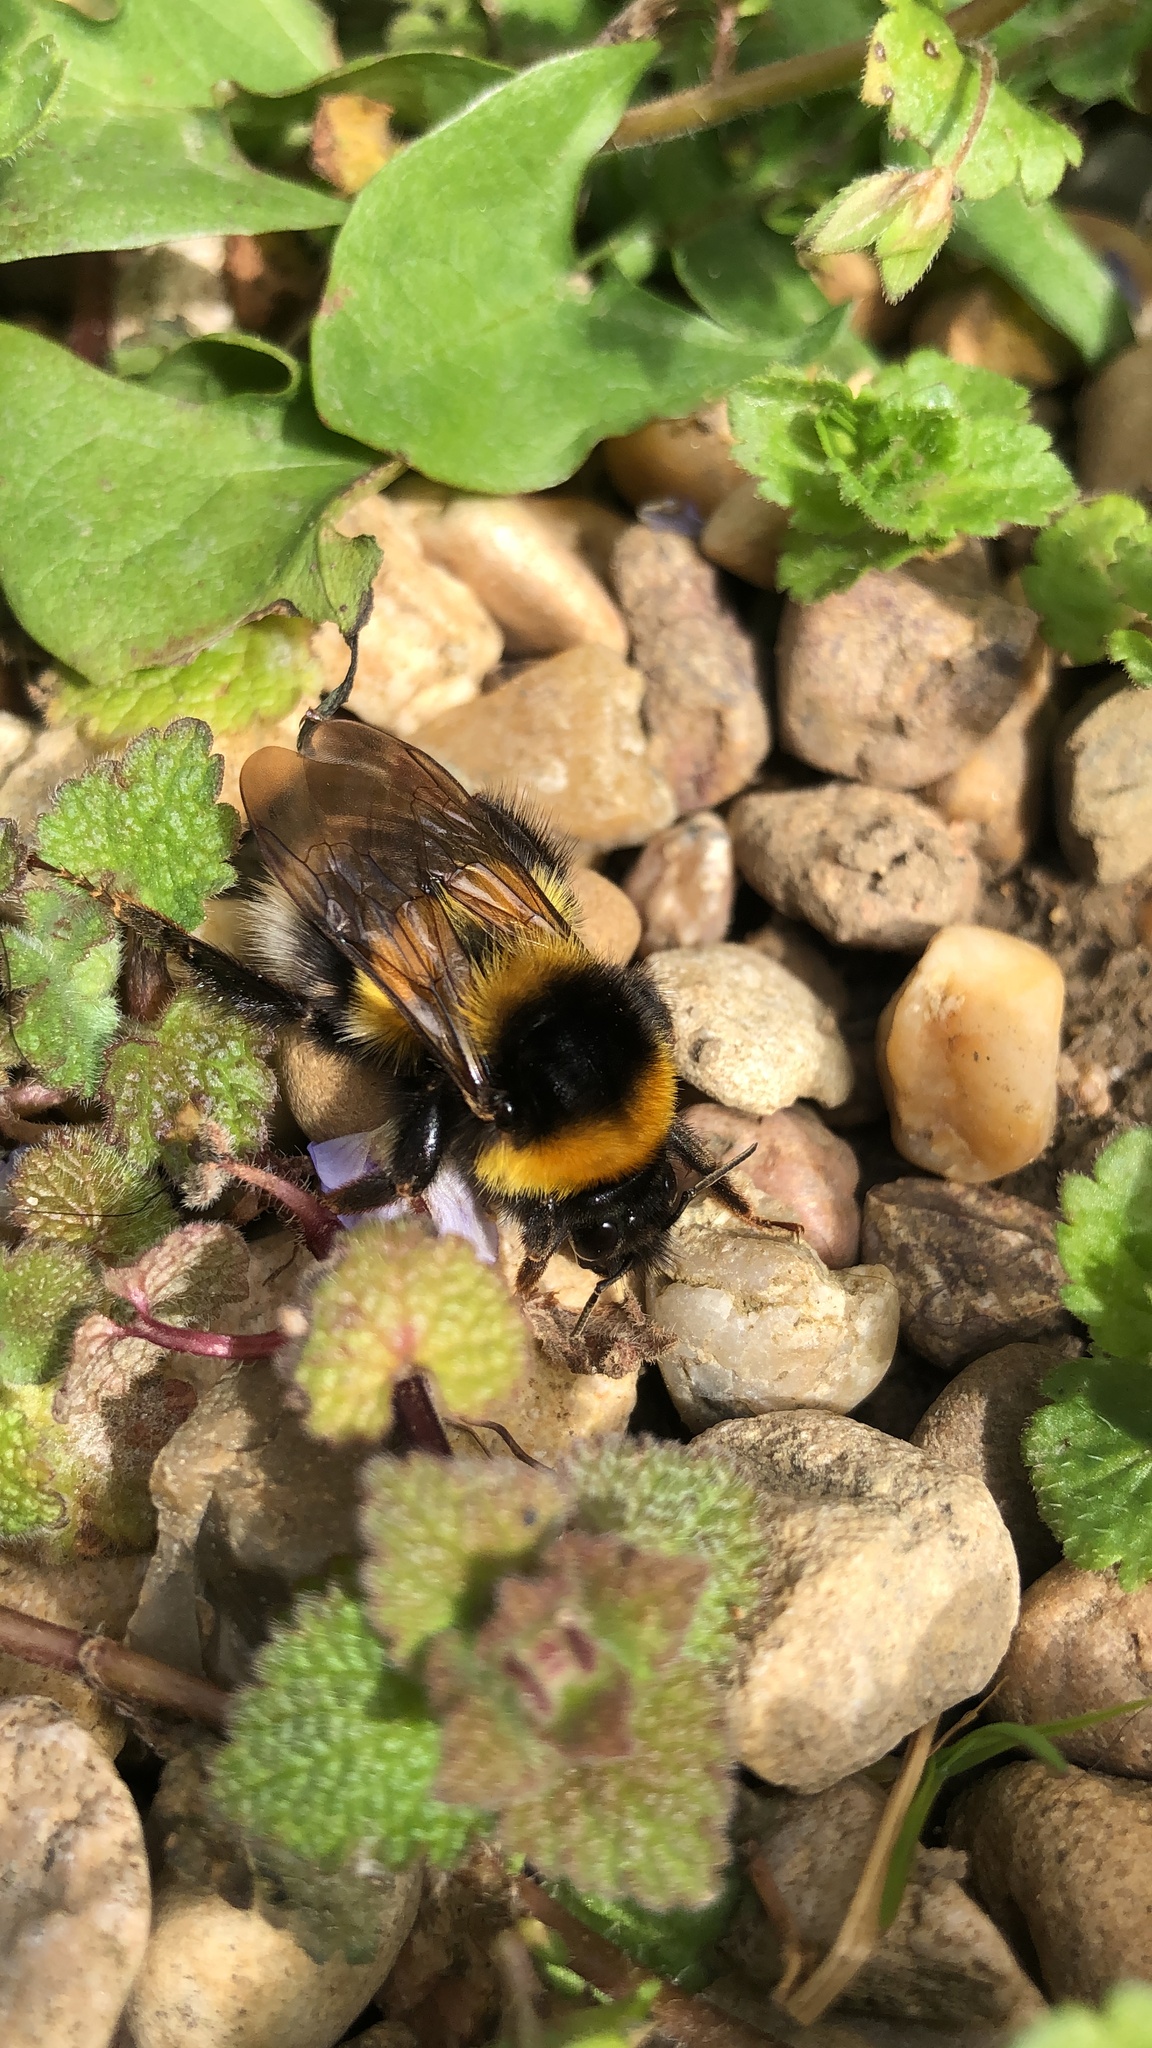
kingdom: Animalia
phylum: Arthropoda
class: Insecta
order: Hymenoptera
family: Apidae
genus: Bombus
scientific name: Bombus hortorum
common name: Garden bumblebee
